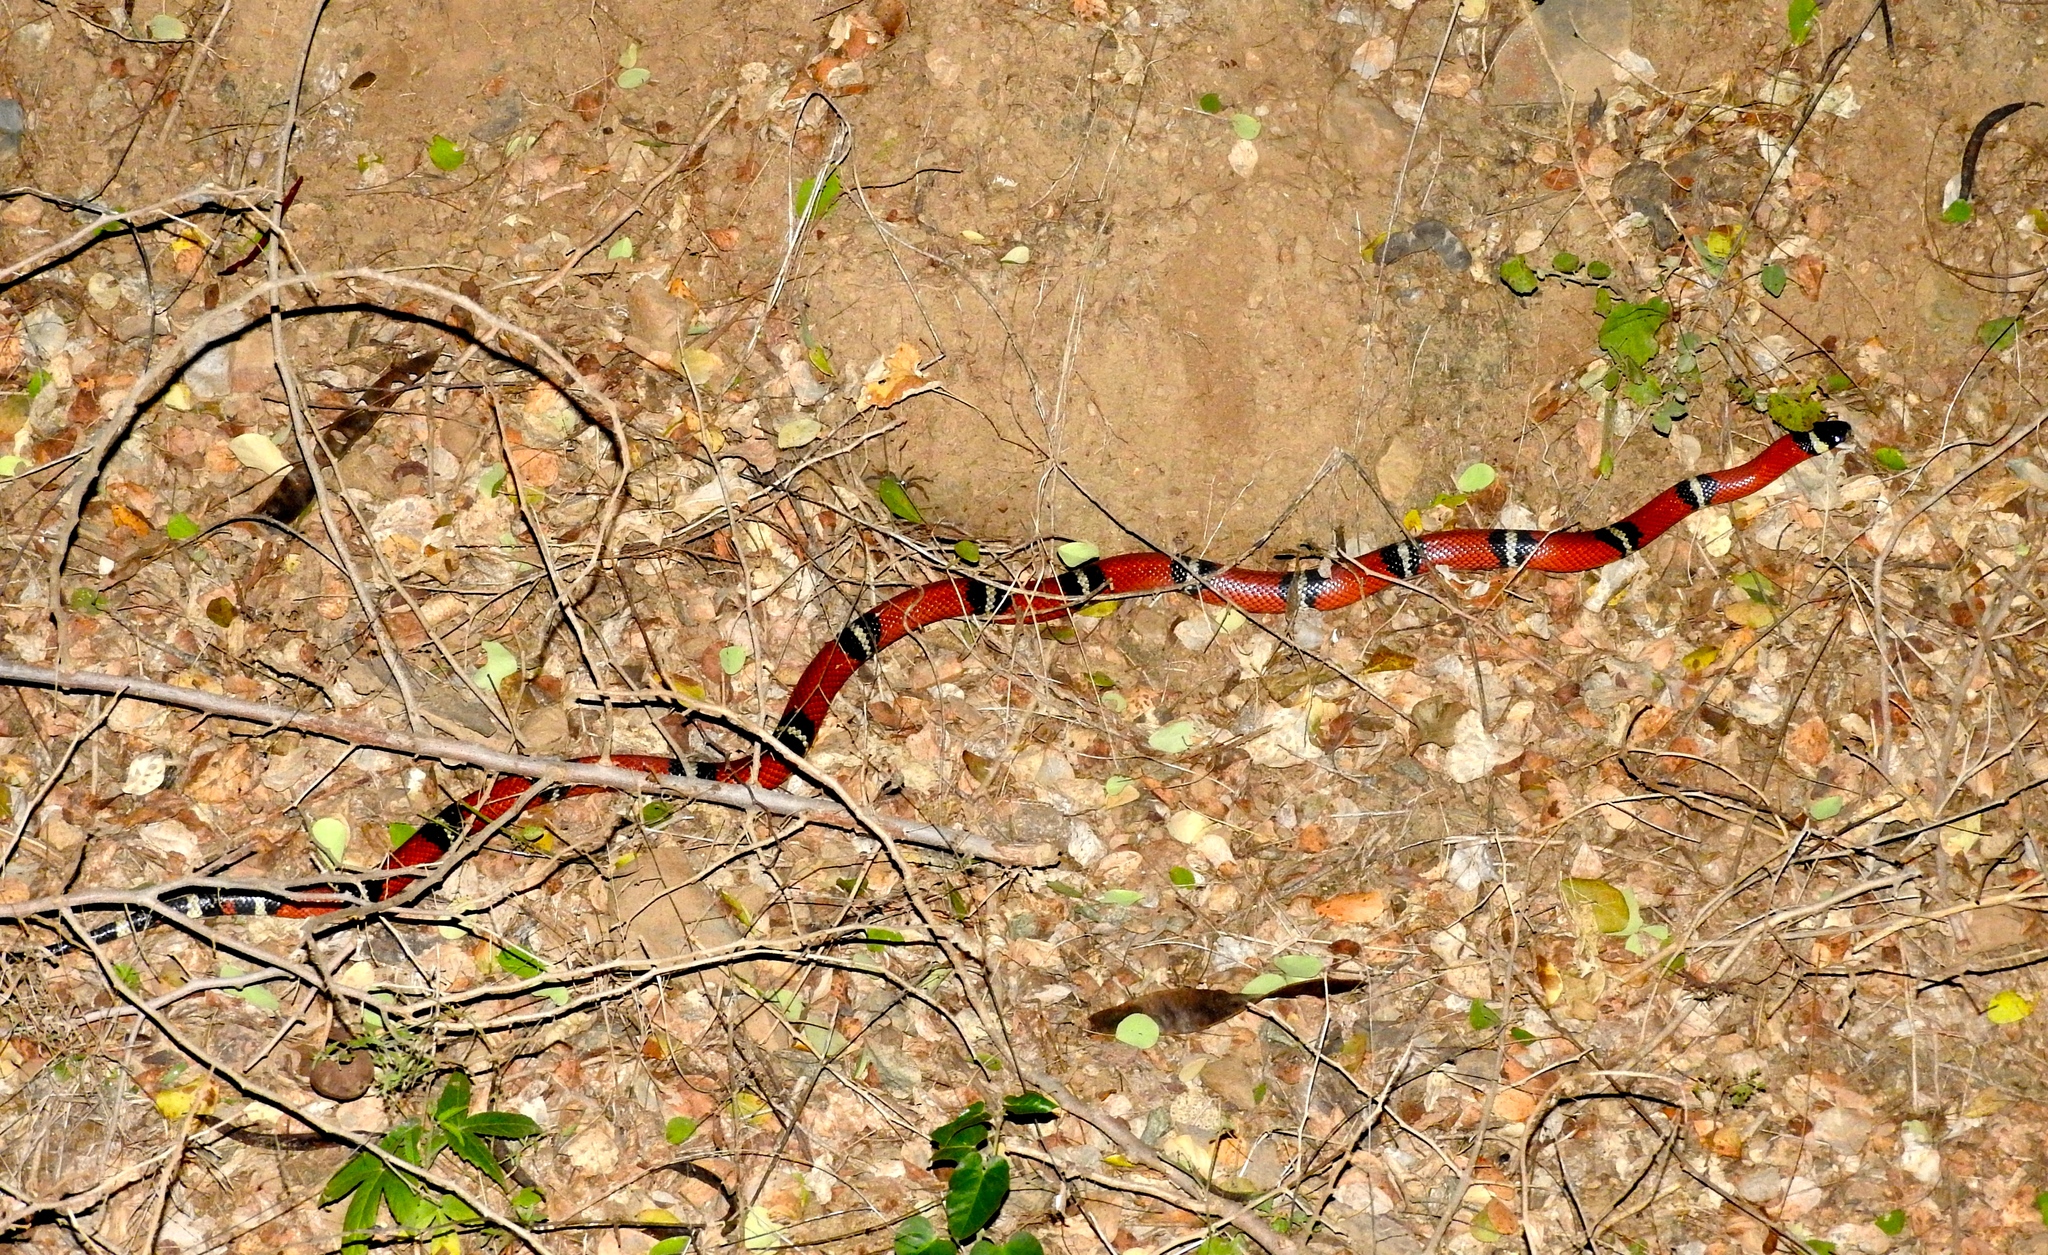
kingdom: Animalia
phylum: Chordata
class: Squamata
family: Colubridae
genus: Lampropeltis
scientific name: Lampropeltis polyzona
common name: Atlantic central american milksnake
